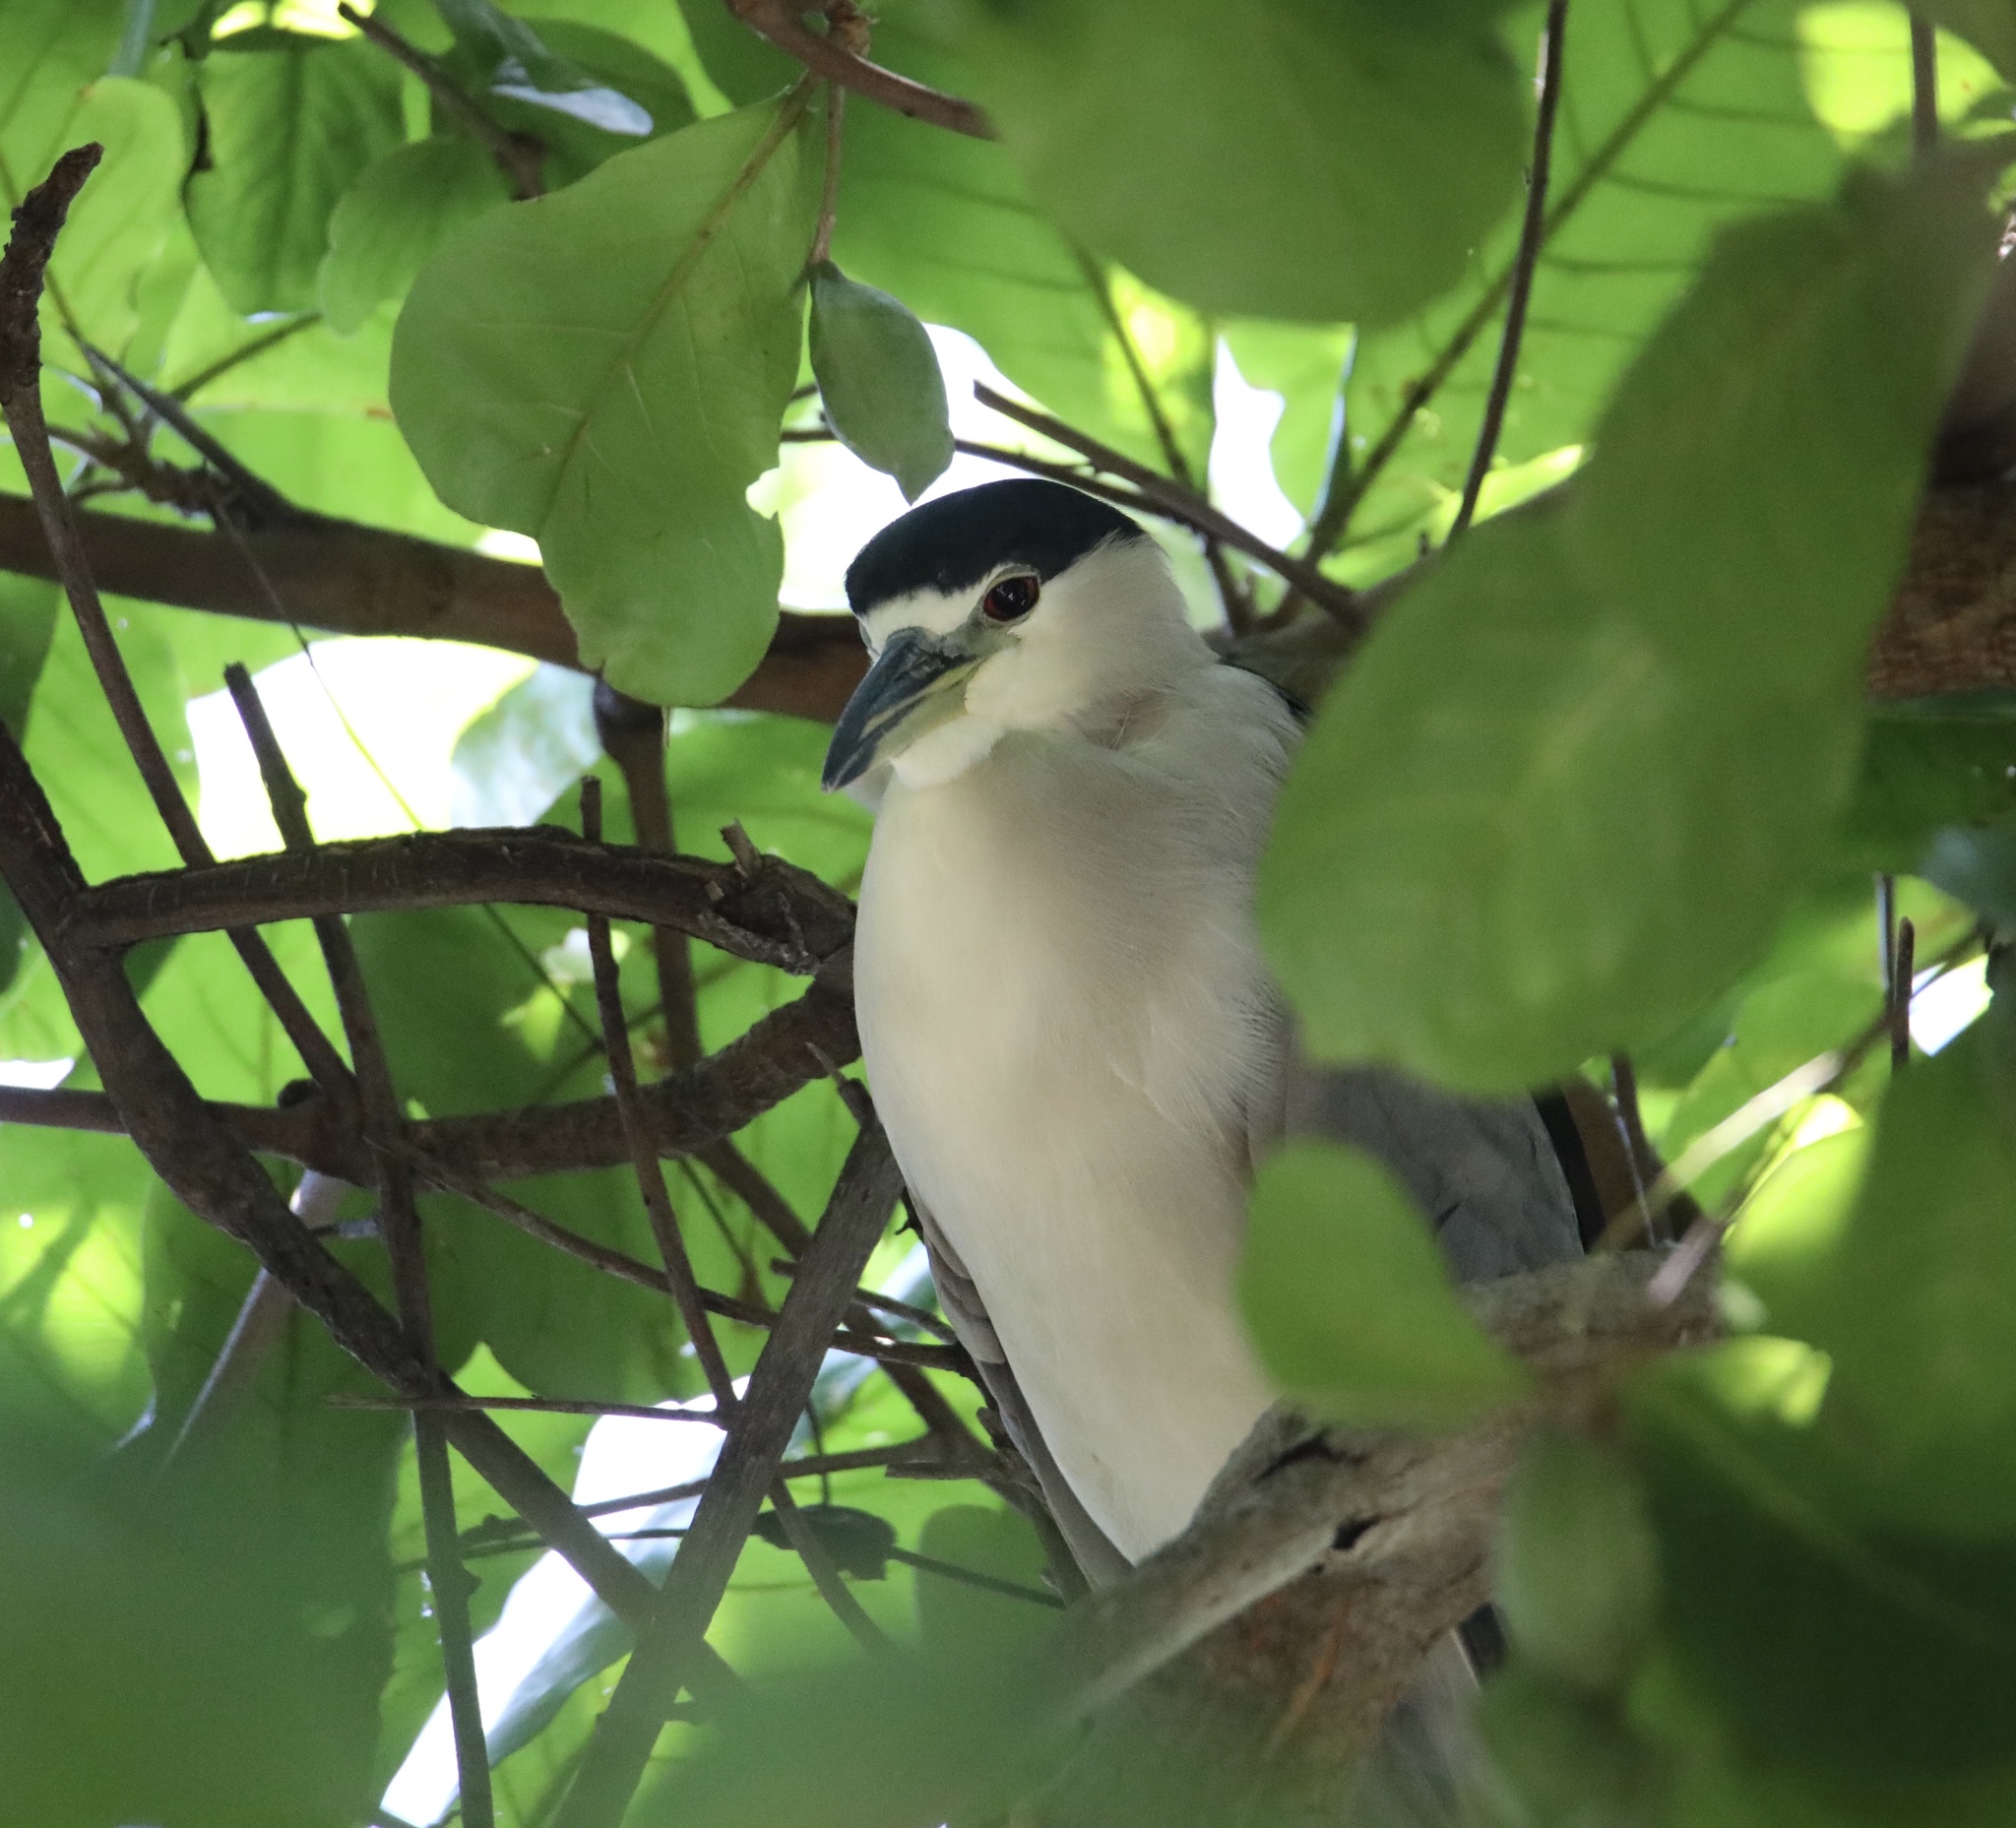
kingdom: Animalia
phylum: Chordata
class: Aves
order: Pelecaniformes
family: Ardeidae
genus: Nycticorax
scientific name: Nycticorax nycticorax
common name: Black-crowned night heron
